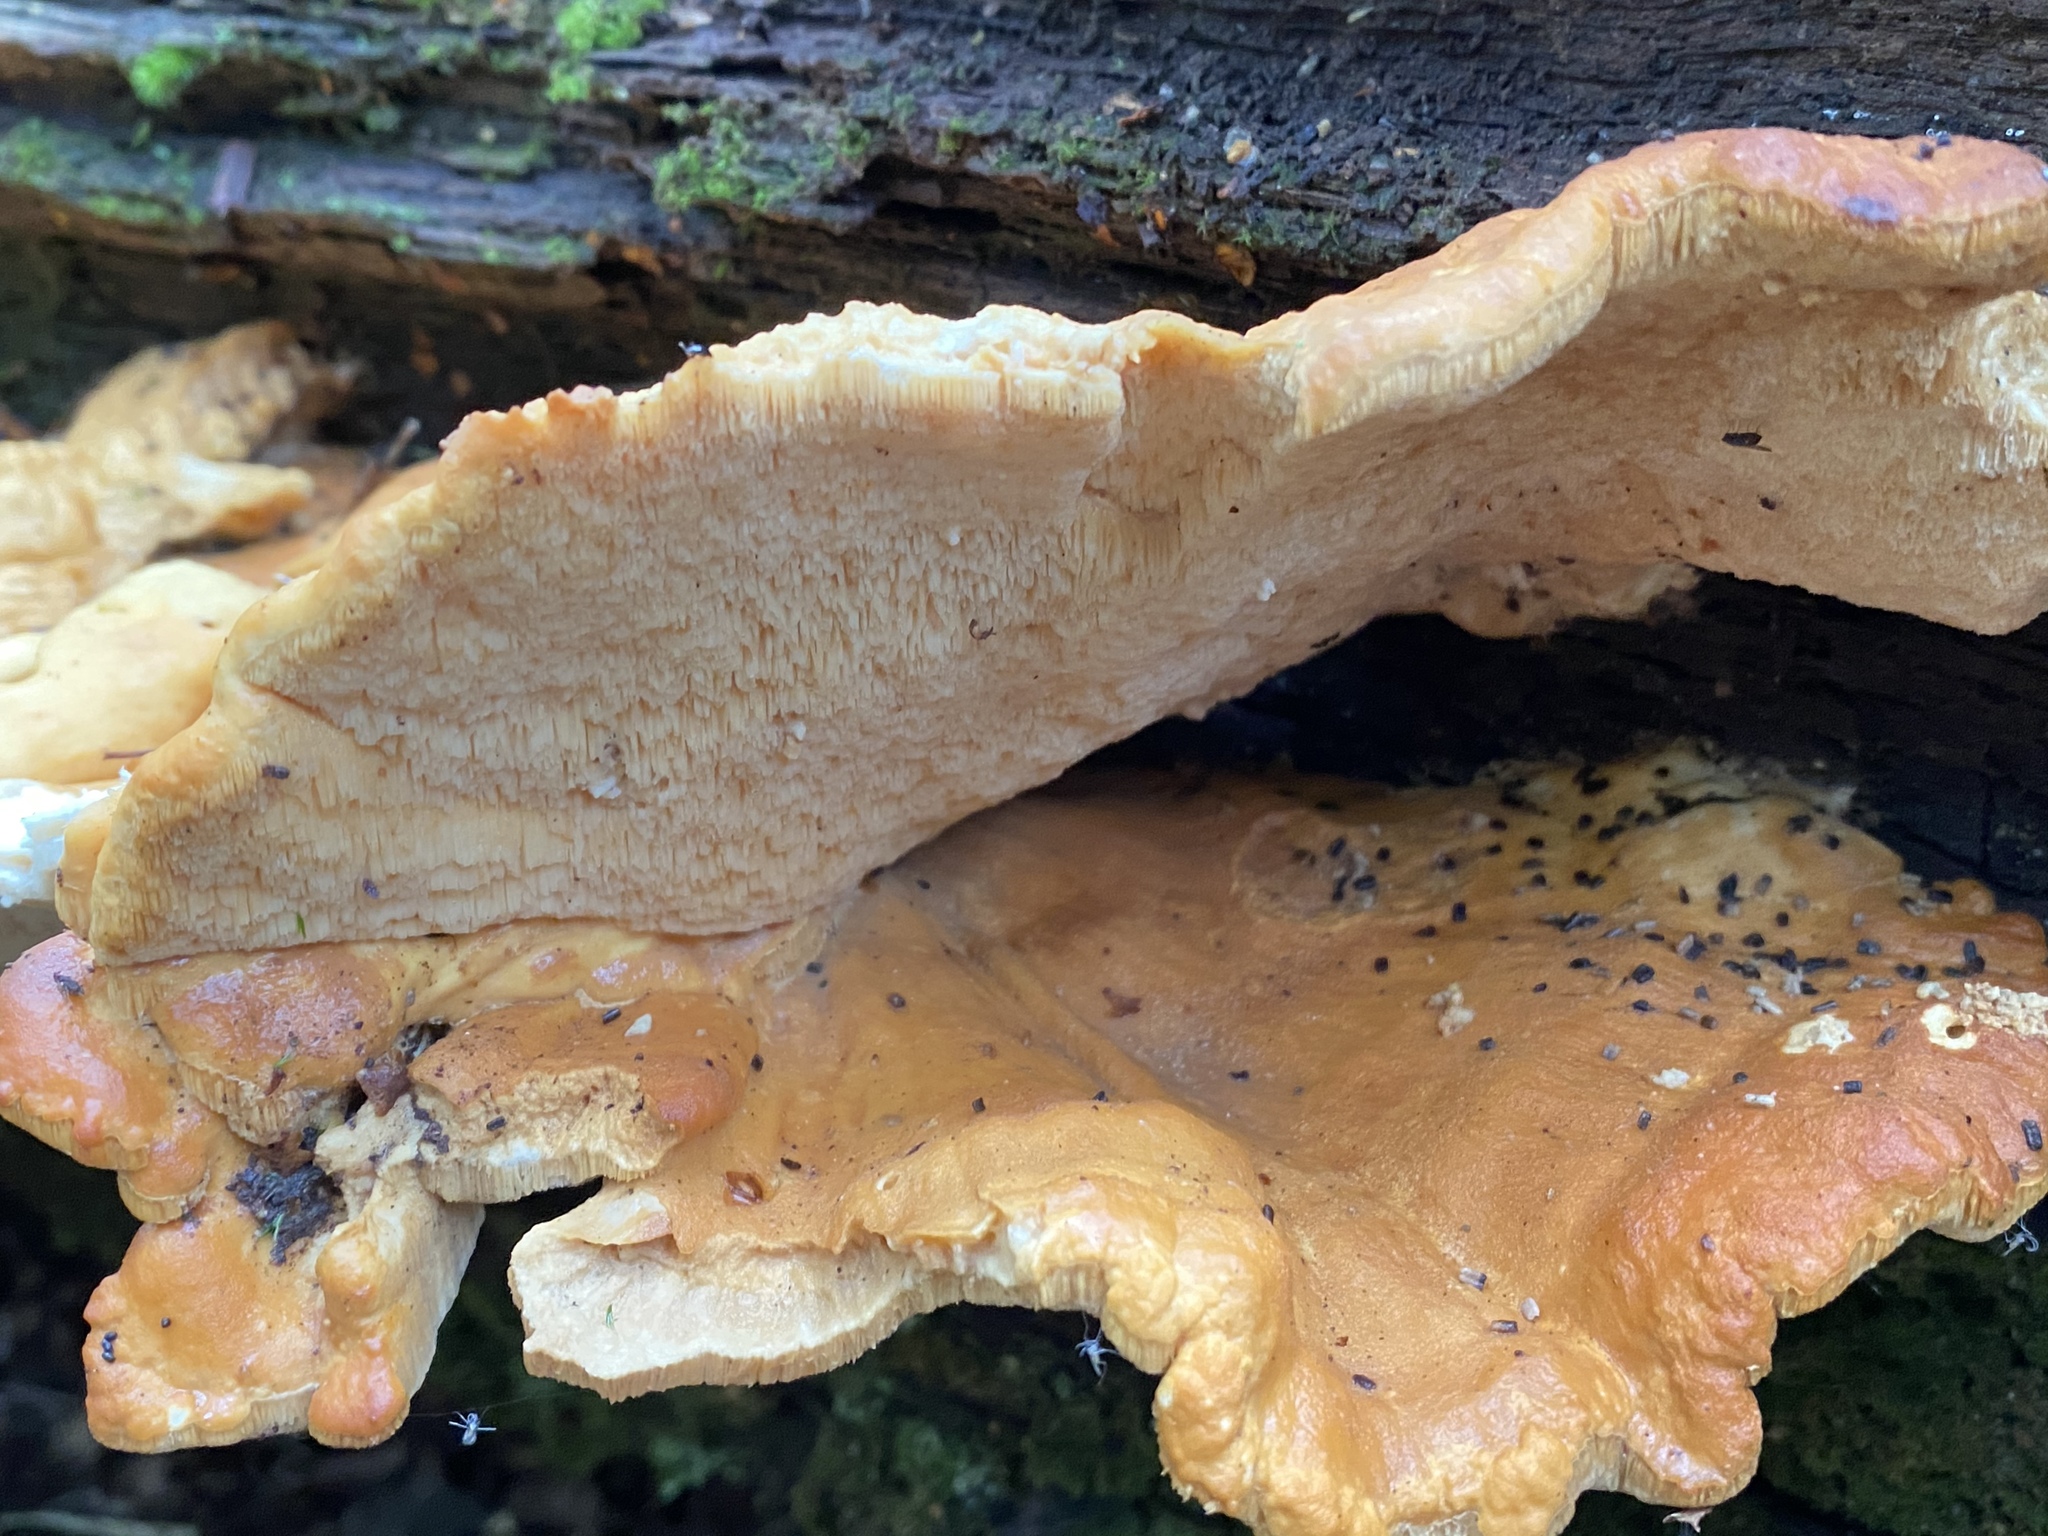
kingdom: Fungi
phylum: Basidiomycota
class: Agaricomycetes
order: Polyporales
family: Laetiporaceae
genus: Laetiporus
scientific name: Laetiporus sulphureus
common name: Chicken of the woods
